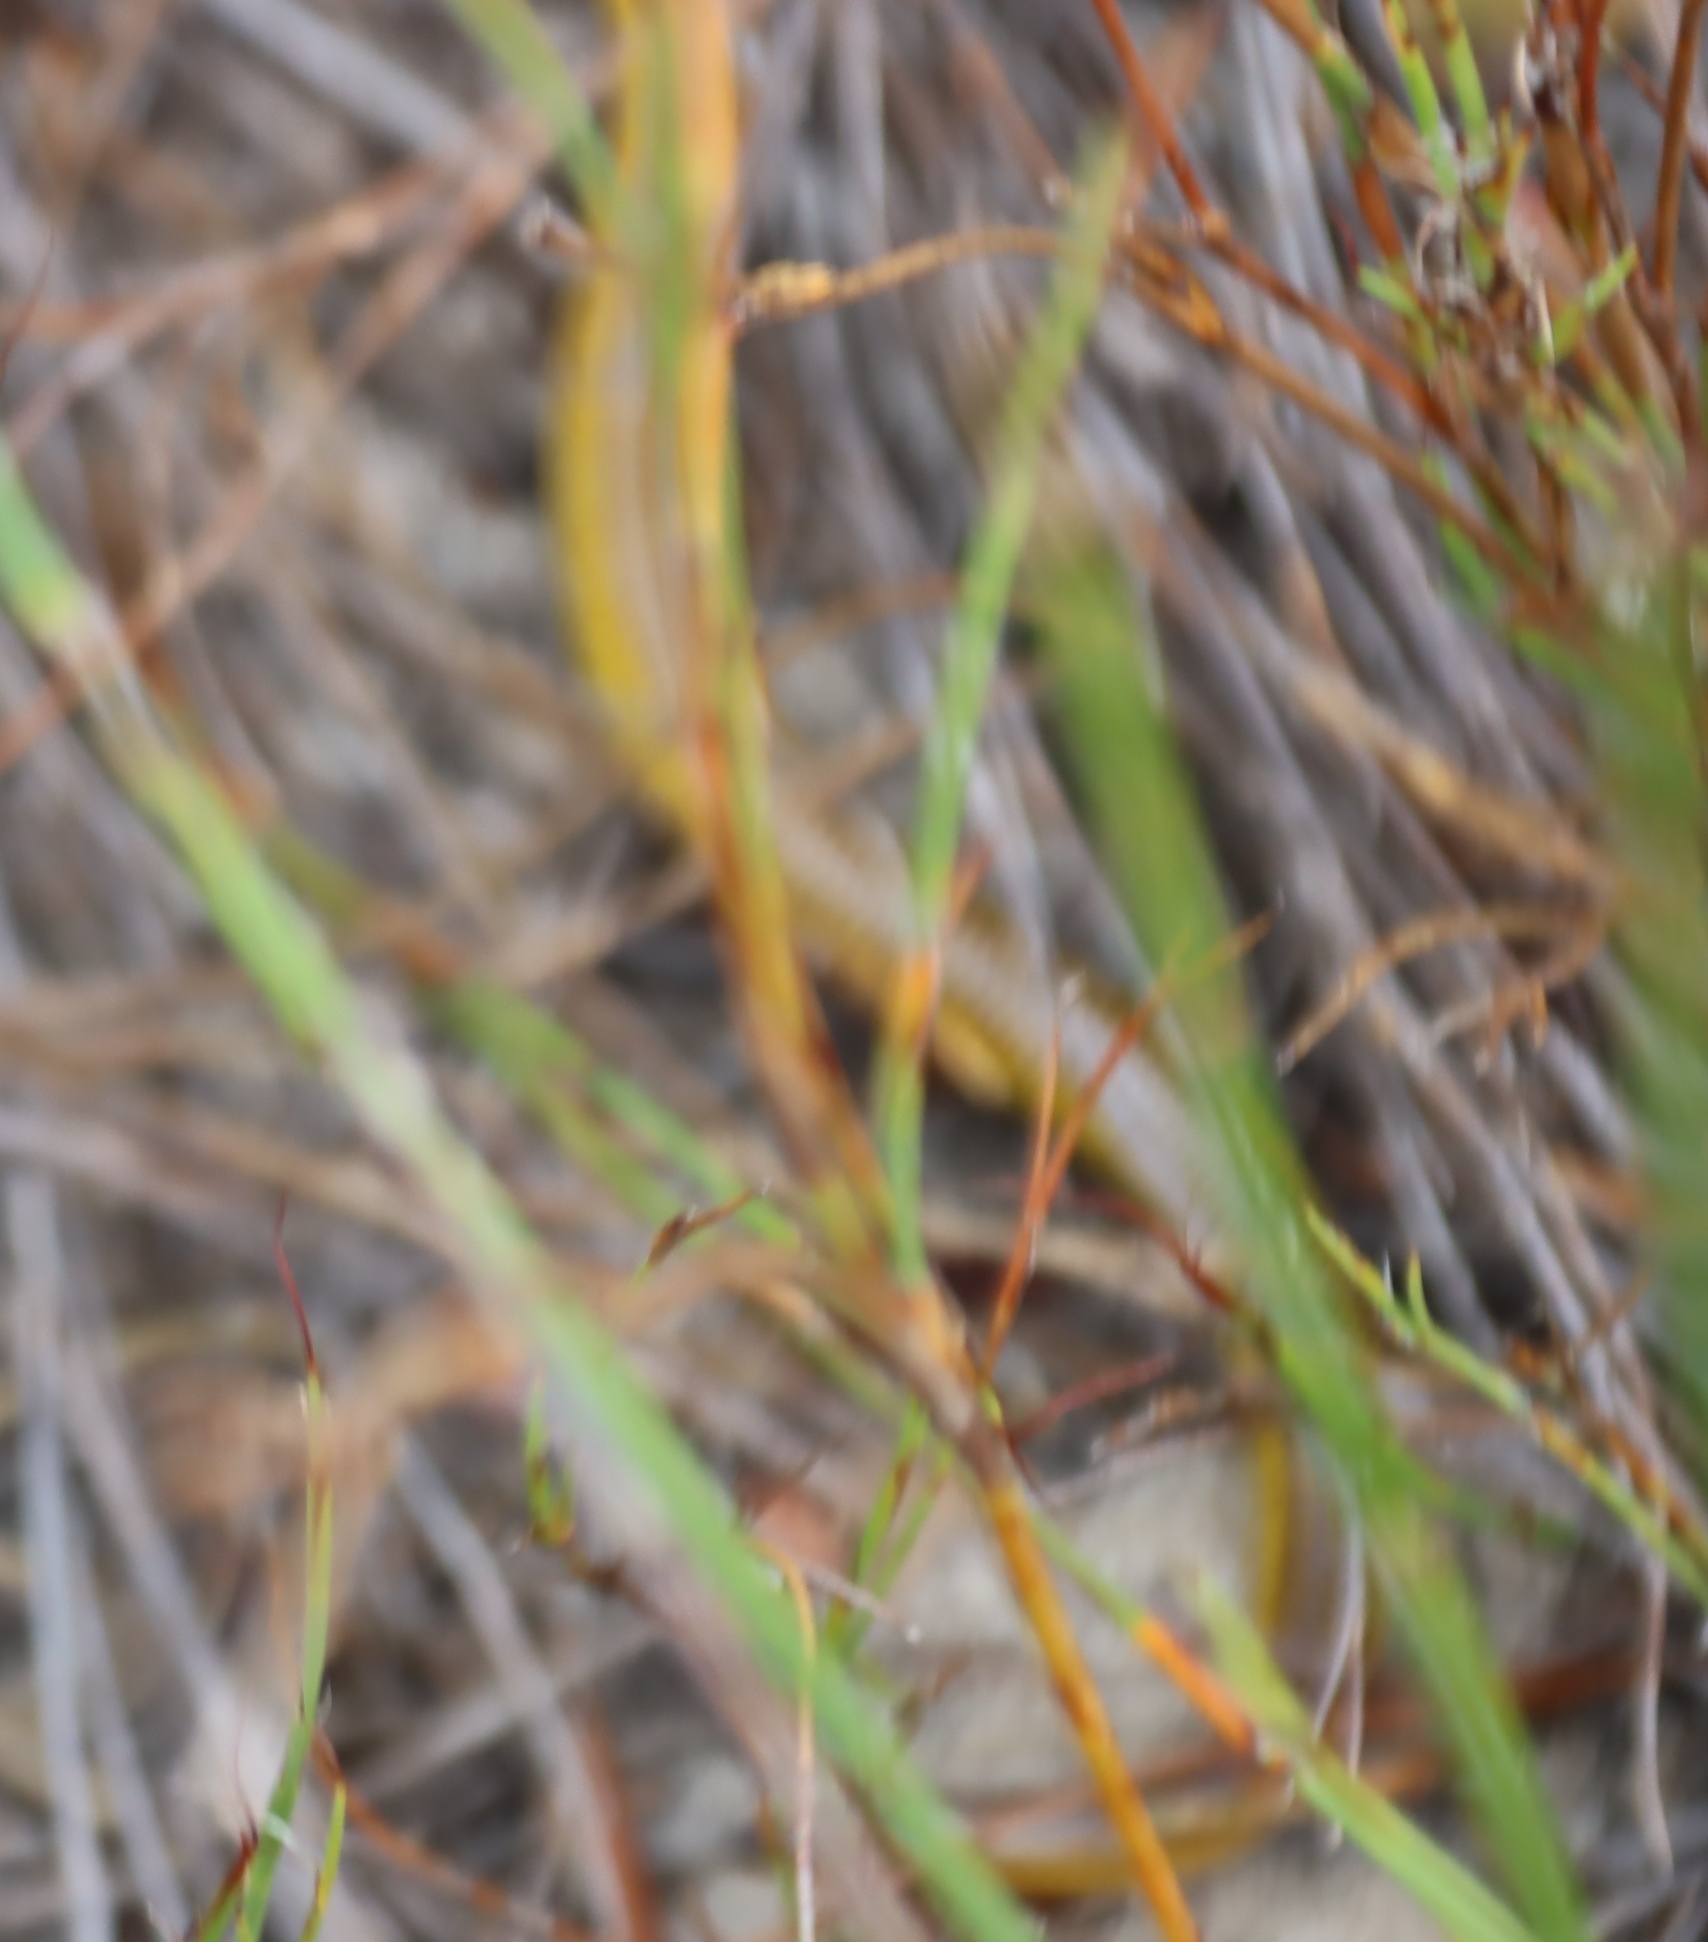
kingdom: Animalia
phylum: Chordata
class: Squamata
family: Scincidae
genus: Acontias
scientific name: Acontias meleagris
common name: Cape legless skink
